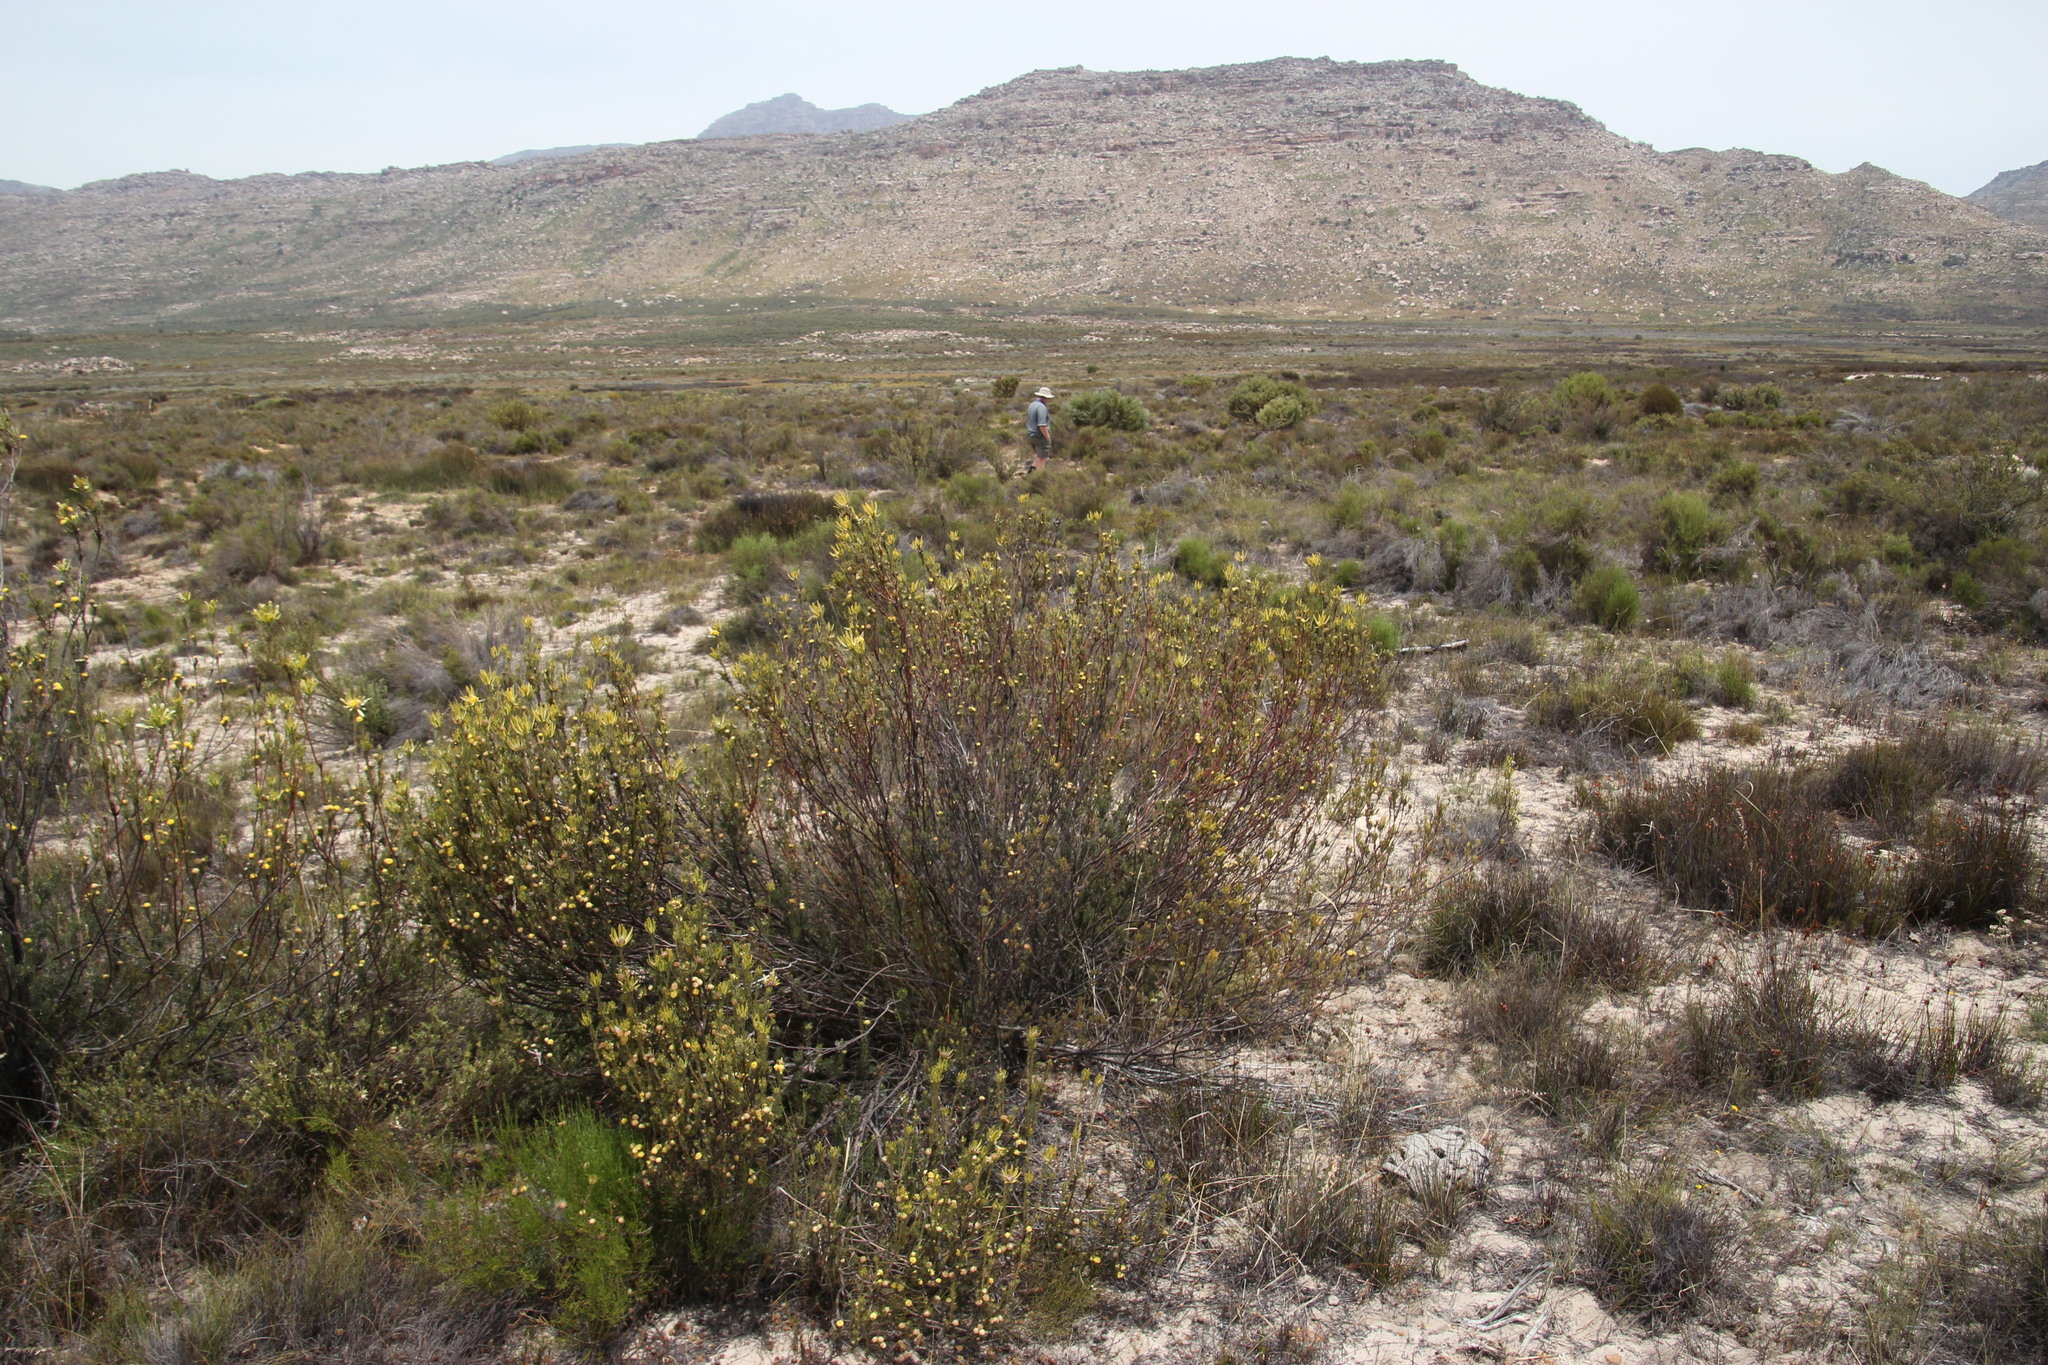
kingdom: Plantae
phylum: Tracheophyta
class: Magnoliopsida
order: Proteales
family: Proteaceae
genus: Leucadendron
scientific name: Leucadendron nitidum
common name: Bokkeveld conebush
